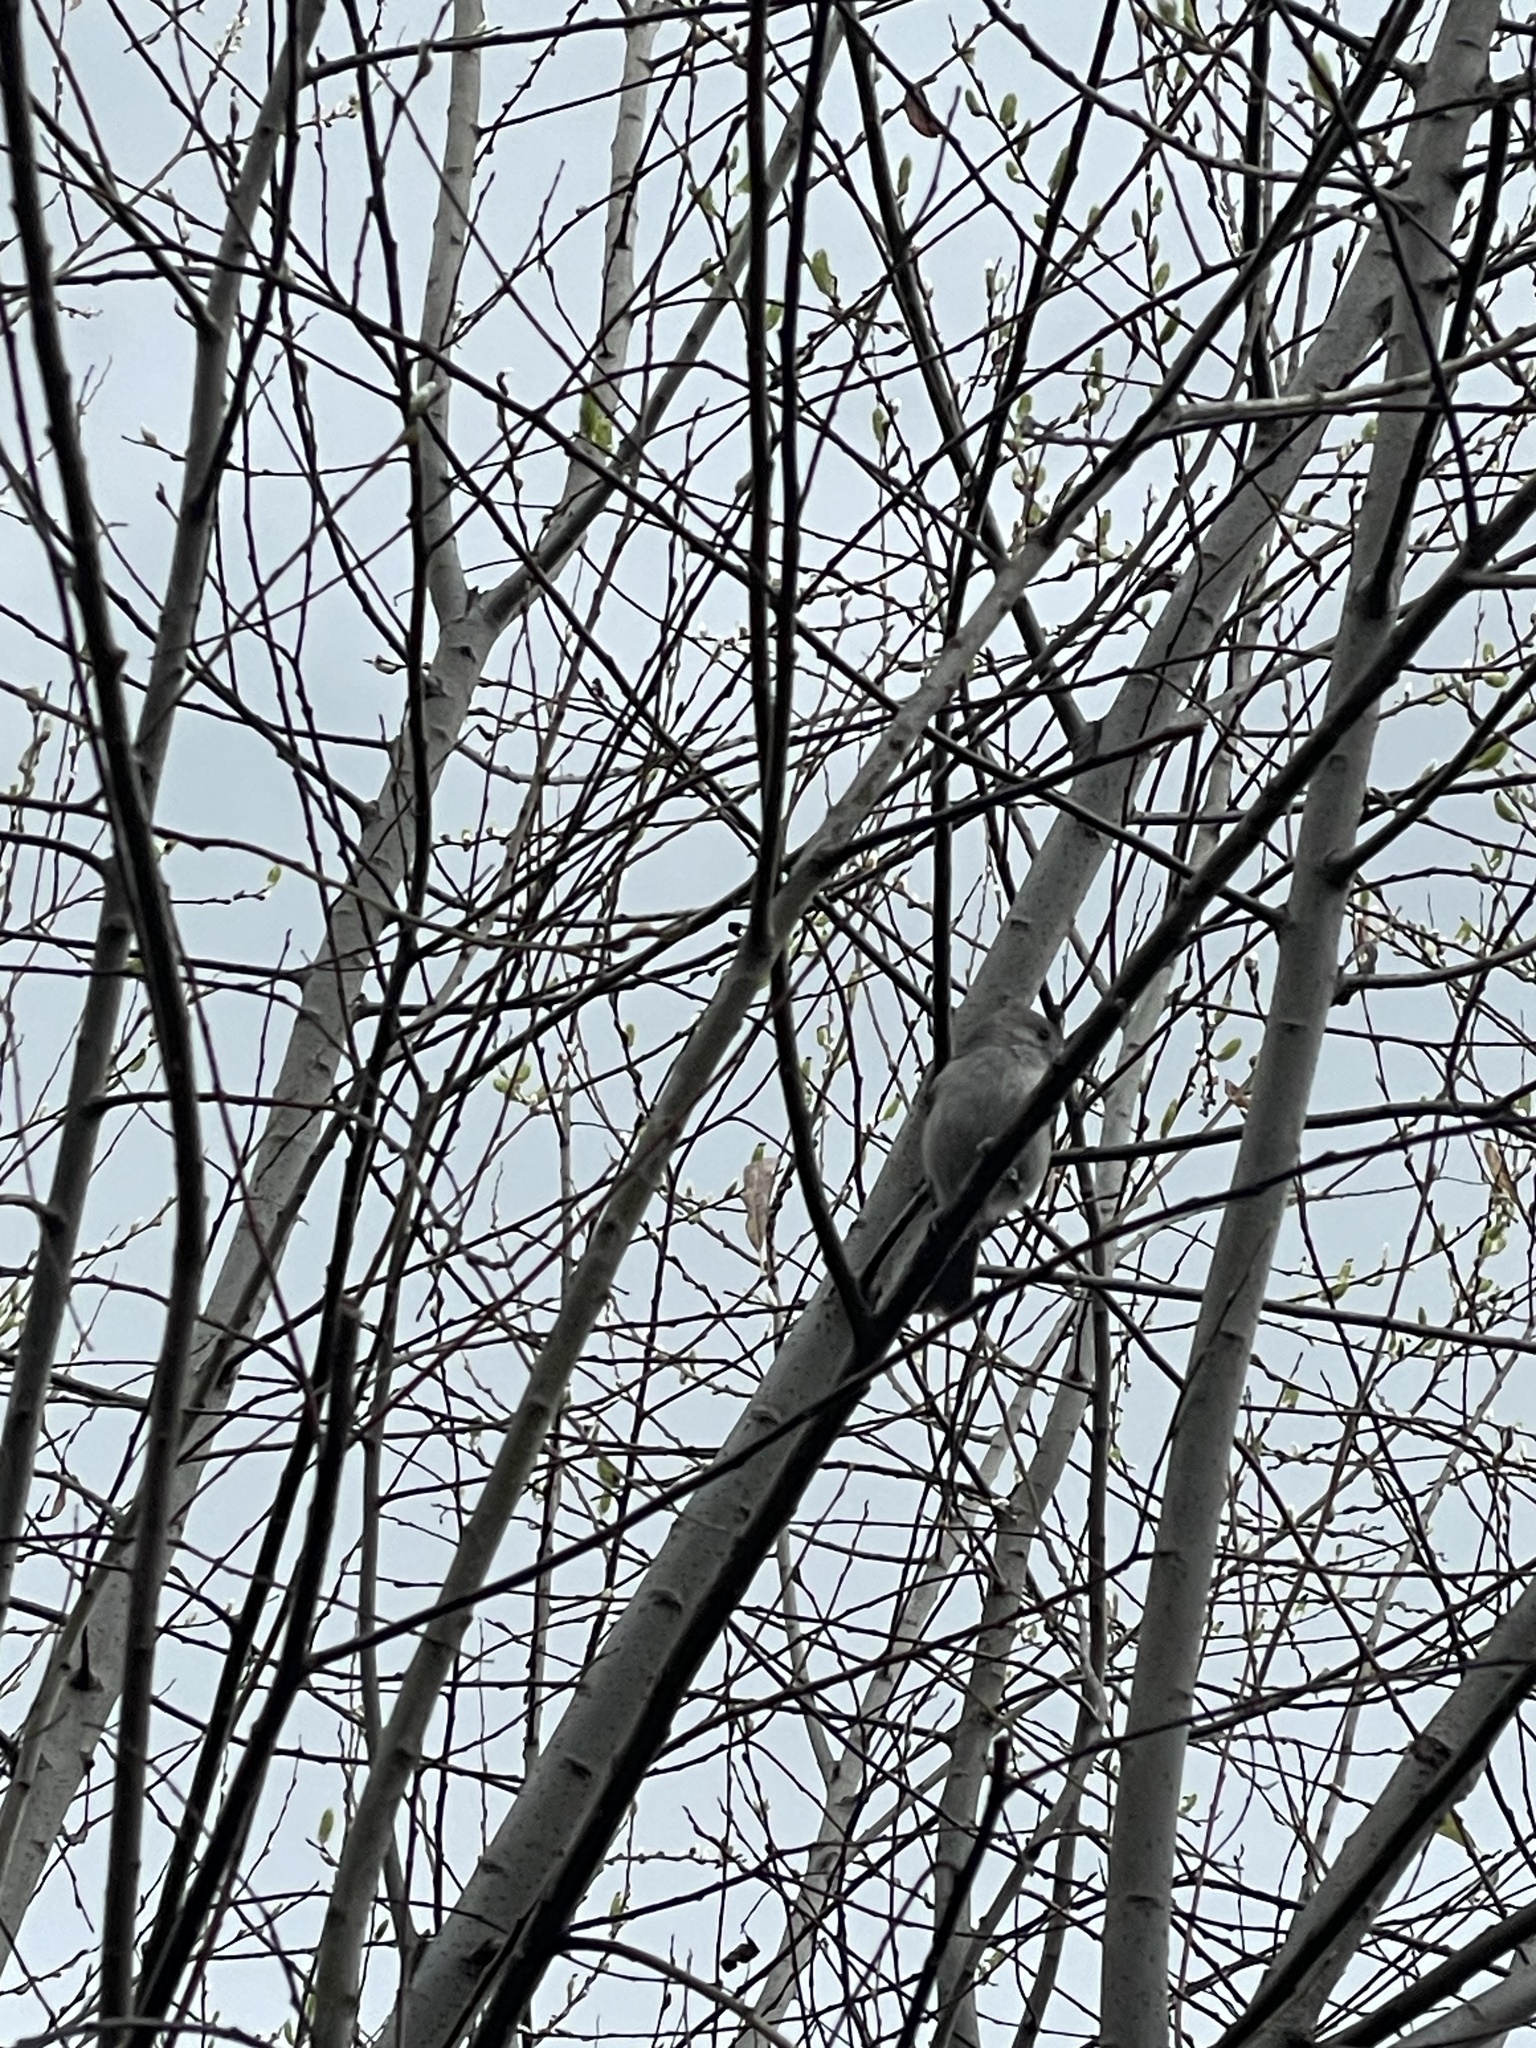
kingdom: Animalia
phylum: Chordata
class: Aves
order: Passeriformes
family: Paridae
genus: Baeolophus
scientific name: Baeolophus inornatus
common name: Oak titmouse
